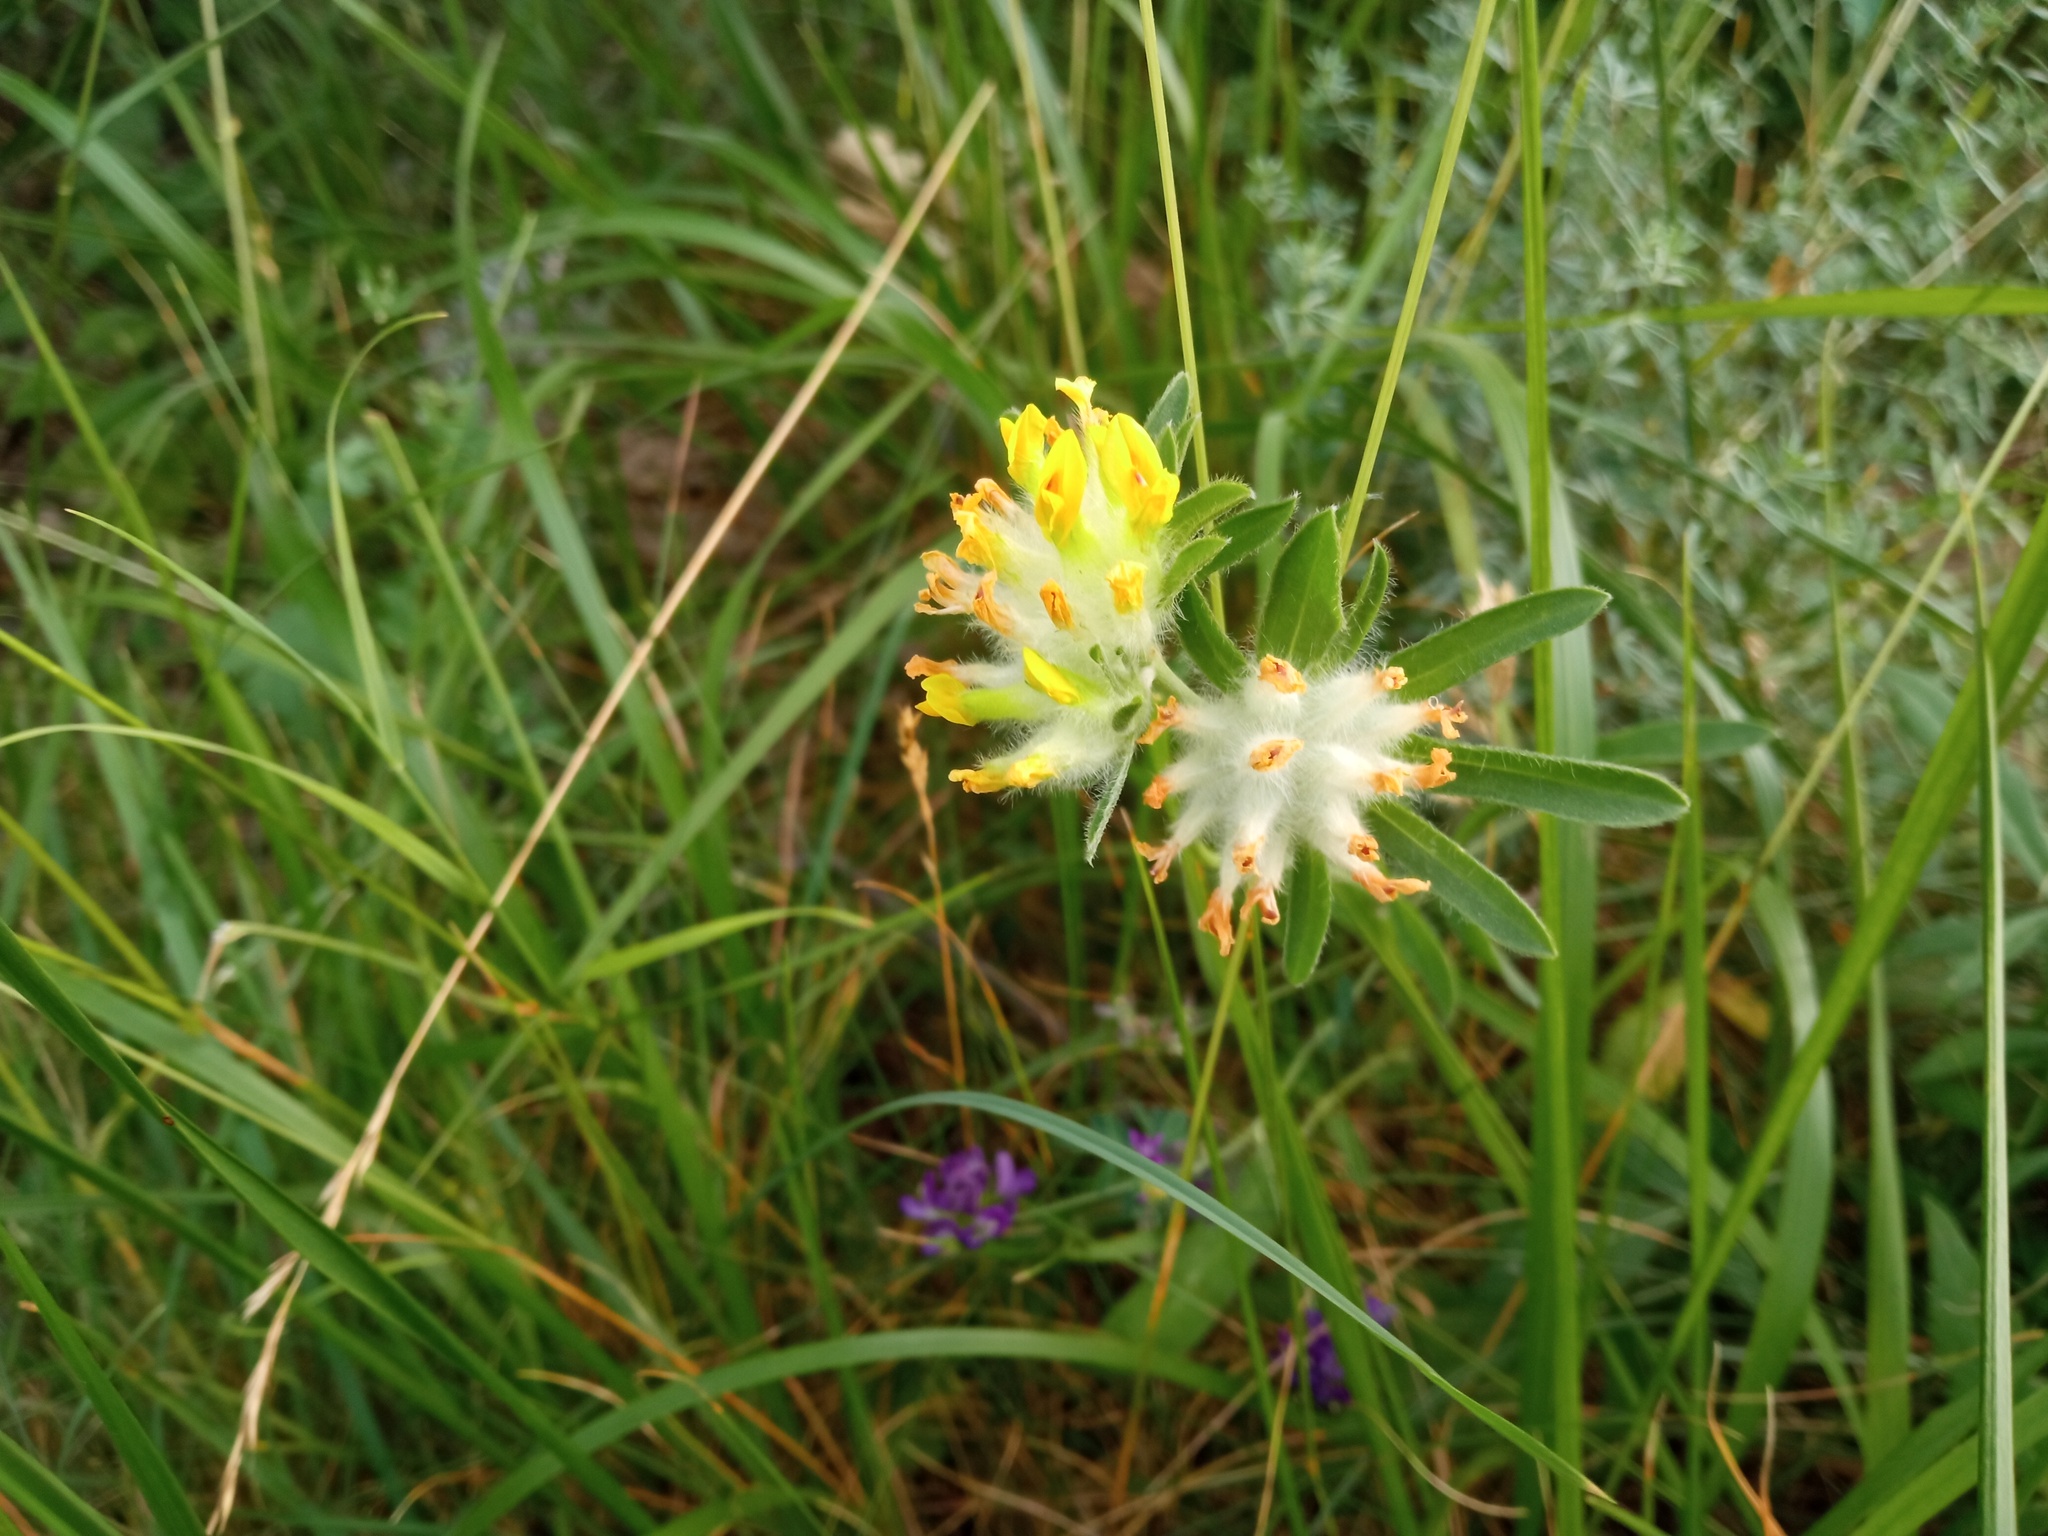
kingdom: Plantae
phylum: Tracheophyta
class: Magnoliopsida
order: Fabales
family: Fabaceae
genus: Anthyllis
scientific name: Anthyllis vulneraria
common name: Kidney vetch
